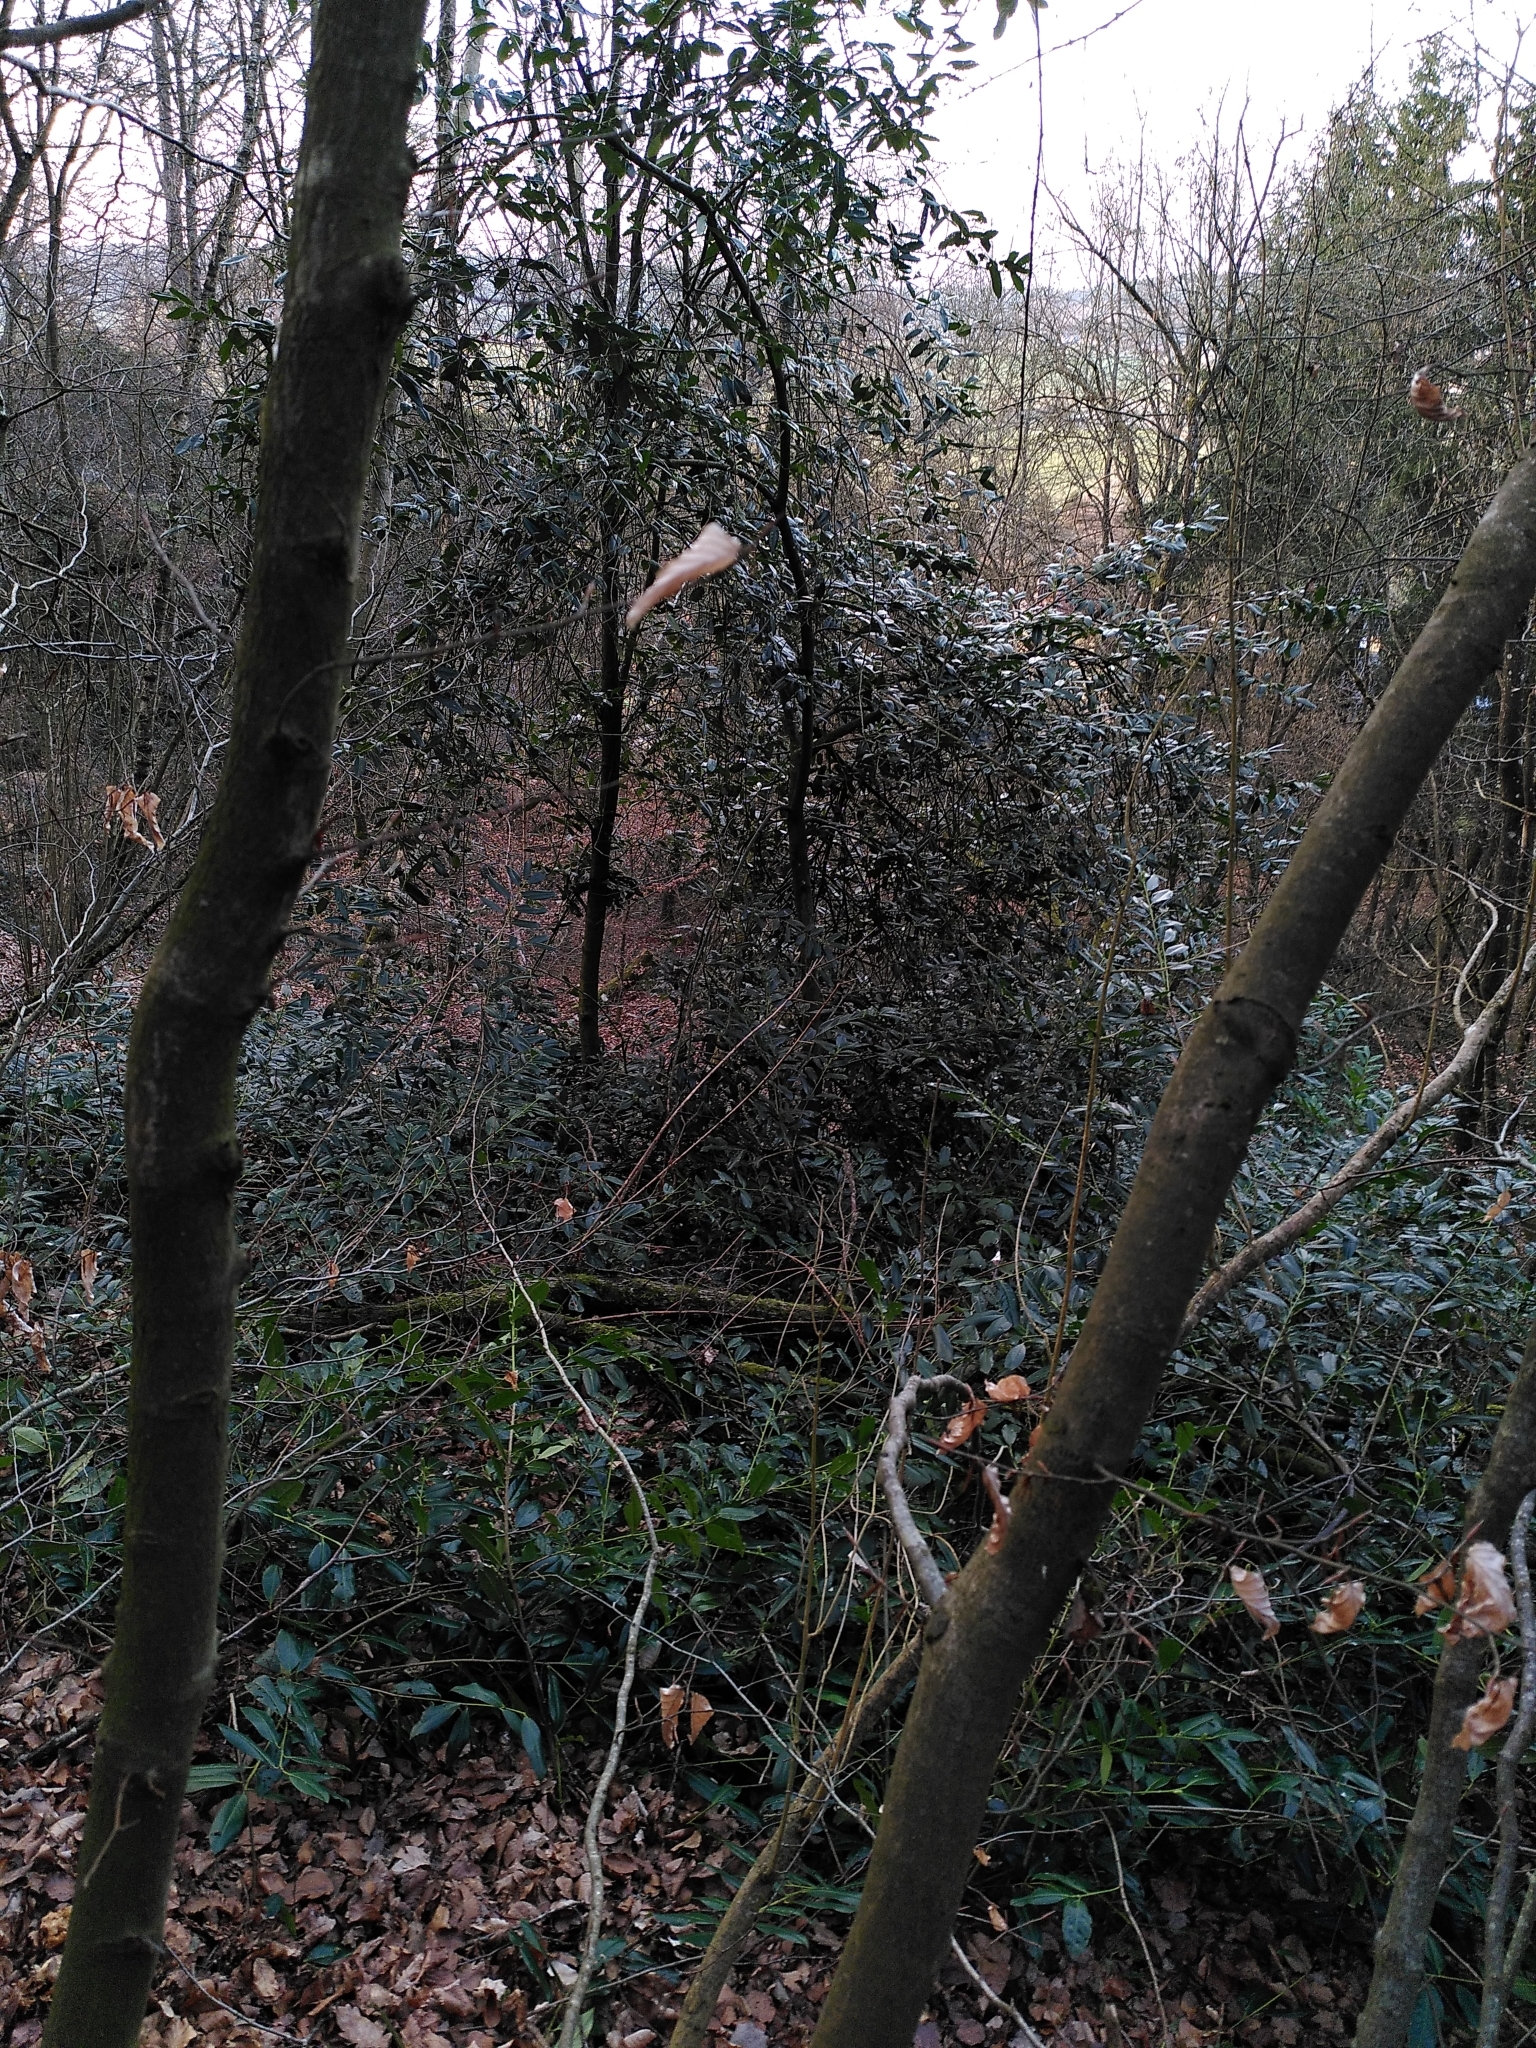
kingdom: Plantae
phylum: Tracheophyta
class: Magnoliopsida
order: Rosales
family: Rosaceae
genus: Prunus
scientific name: Prunus laurocerasus
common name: Cherry laurel
